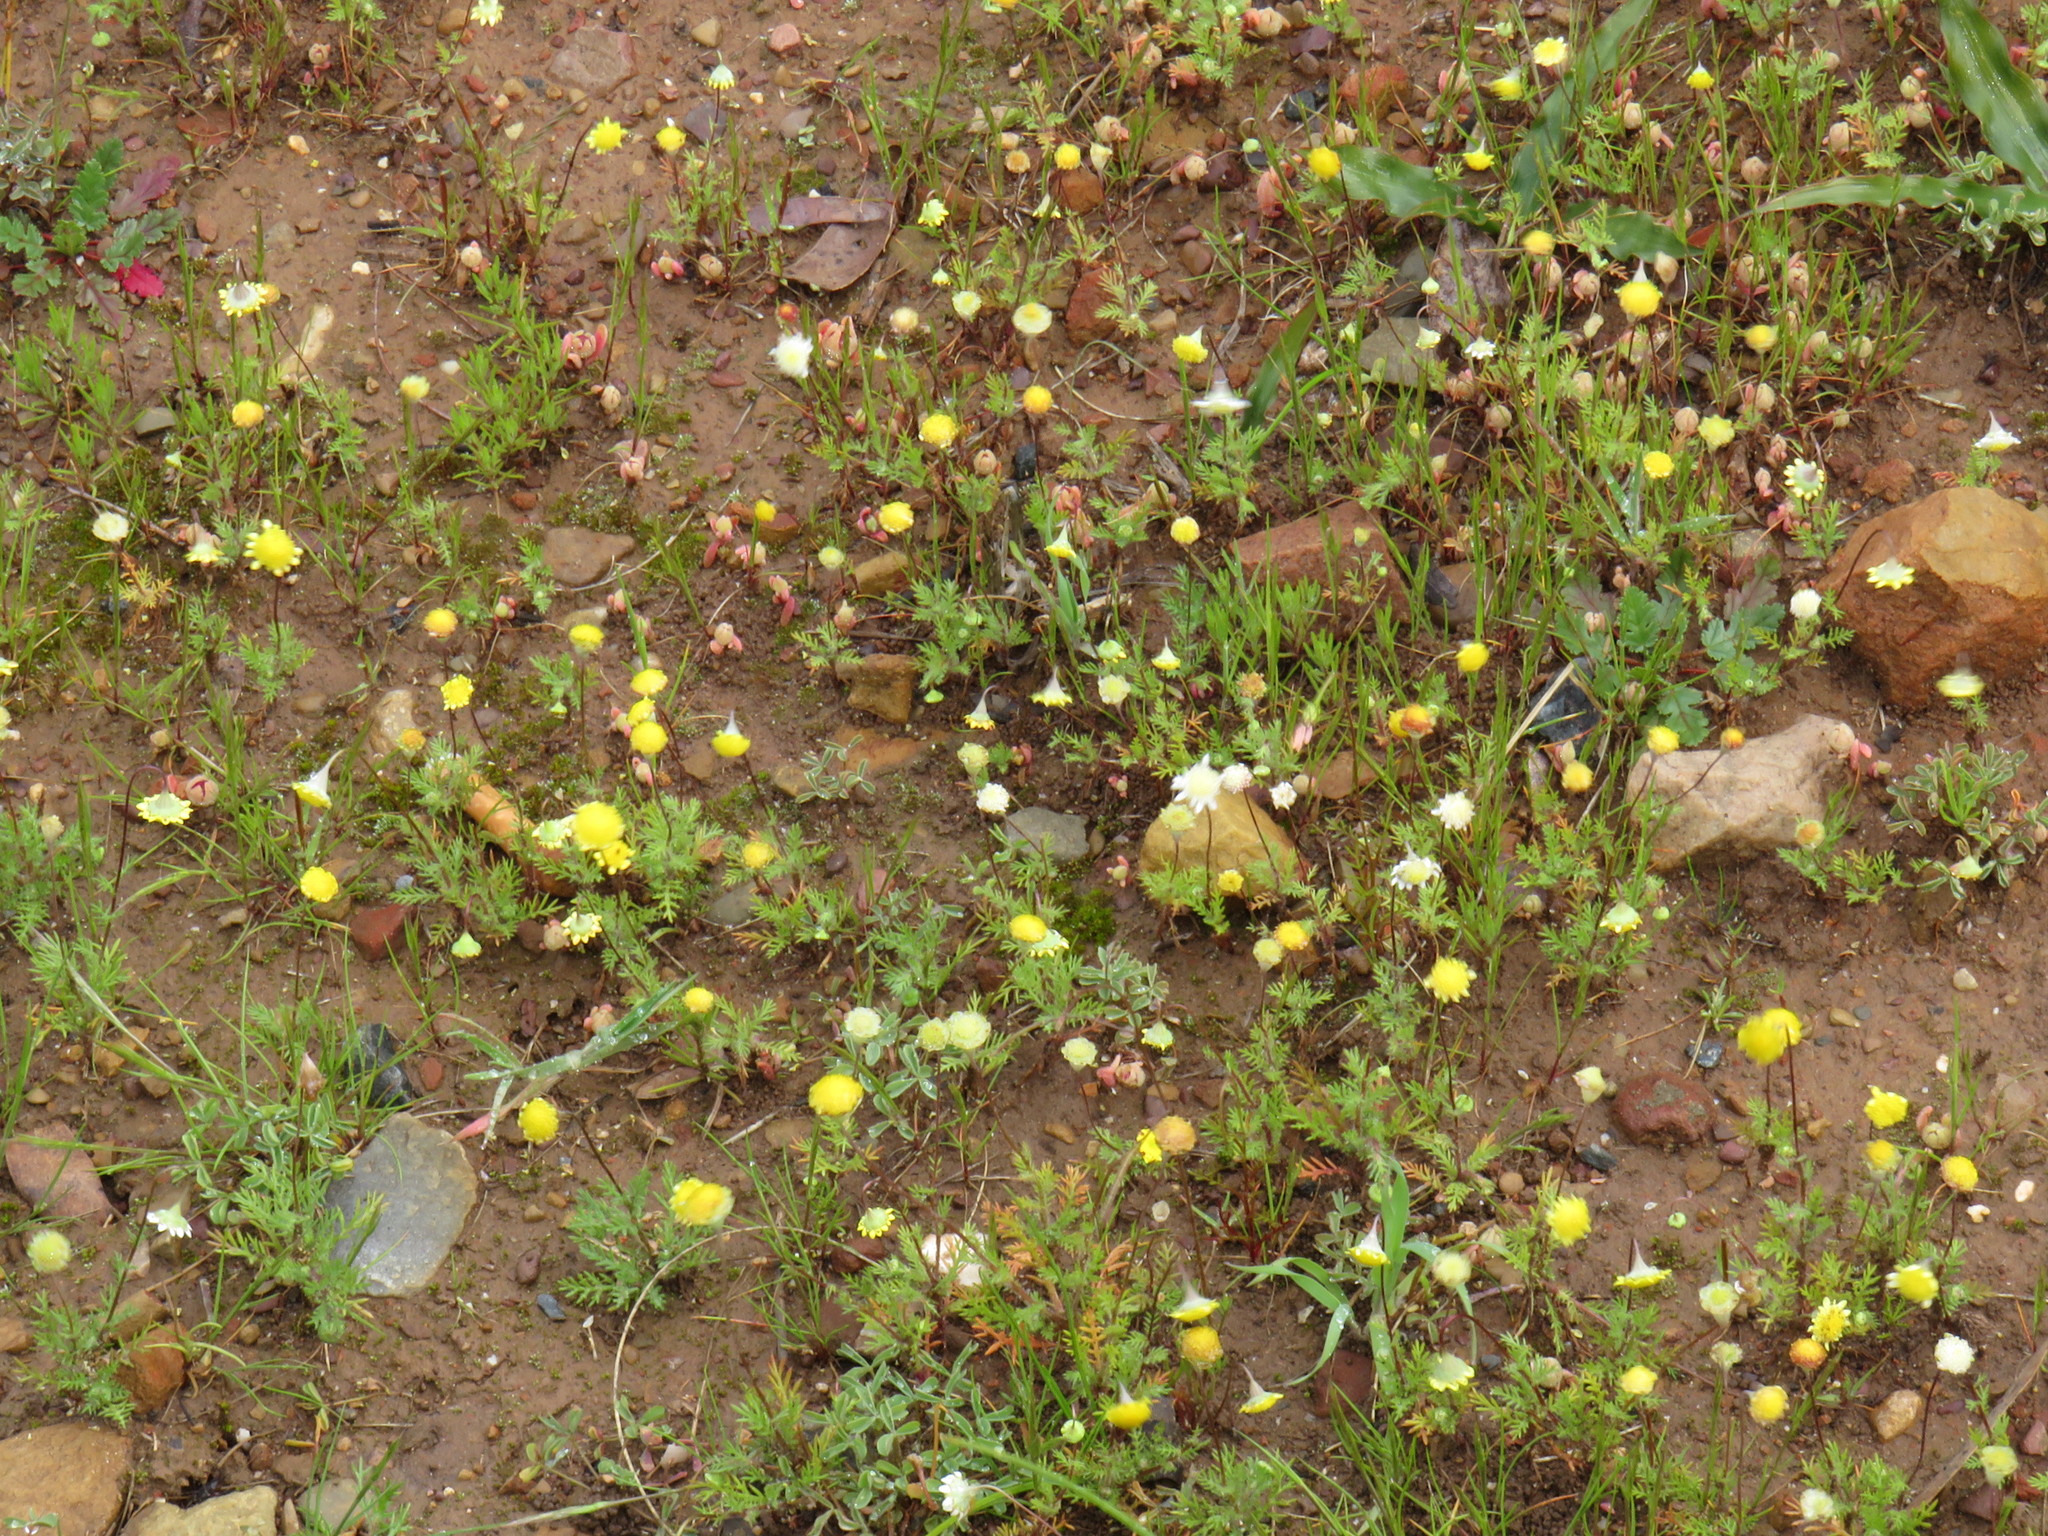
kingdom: Plantae
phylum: Tracheophyta
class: Magnoliopsida
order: Asterales
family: Asteraceae
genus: Cotula
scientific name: Cotula pruinosa
